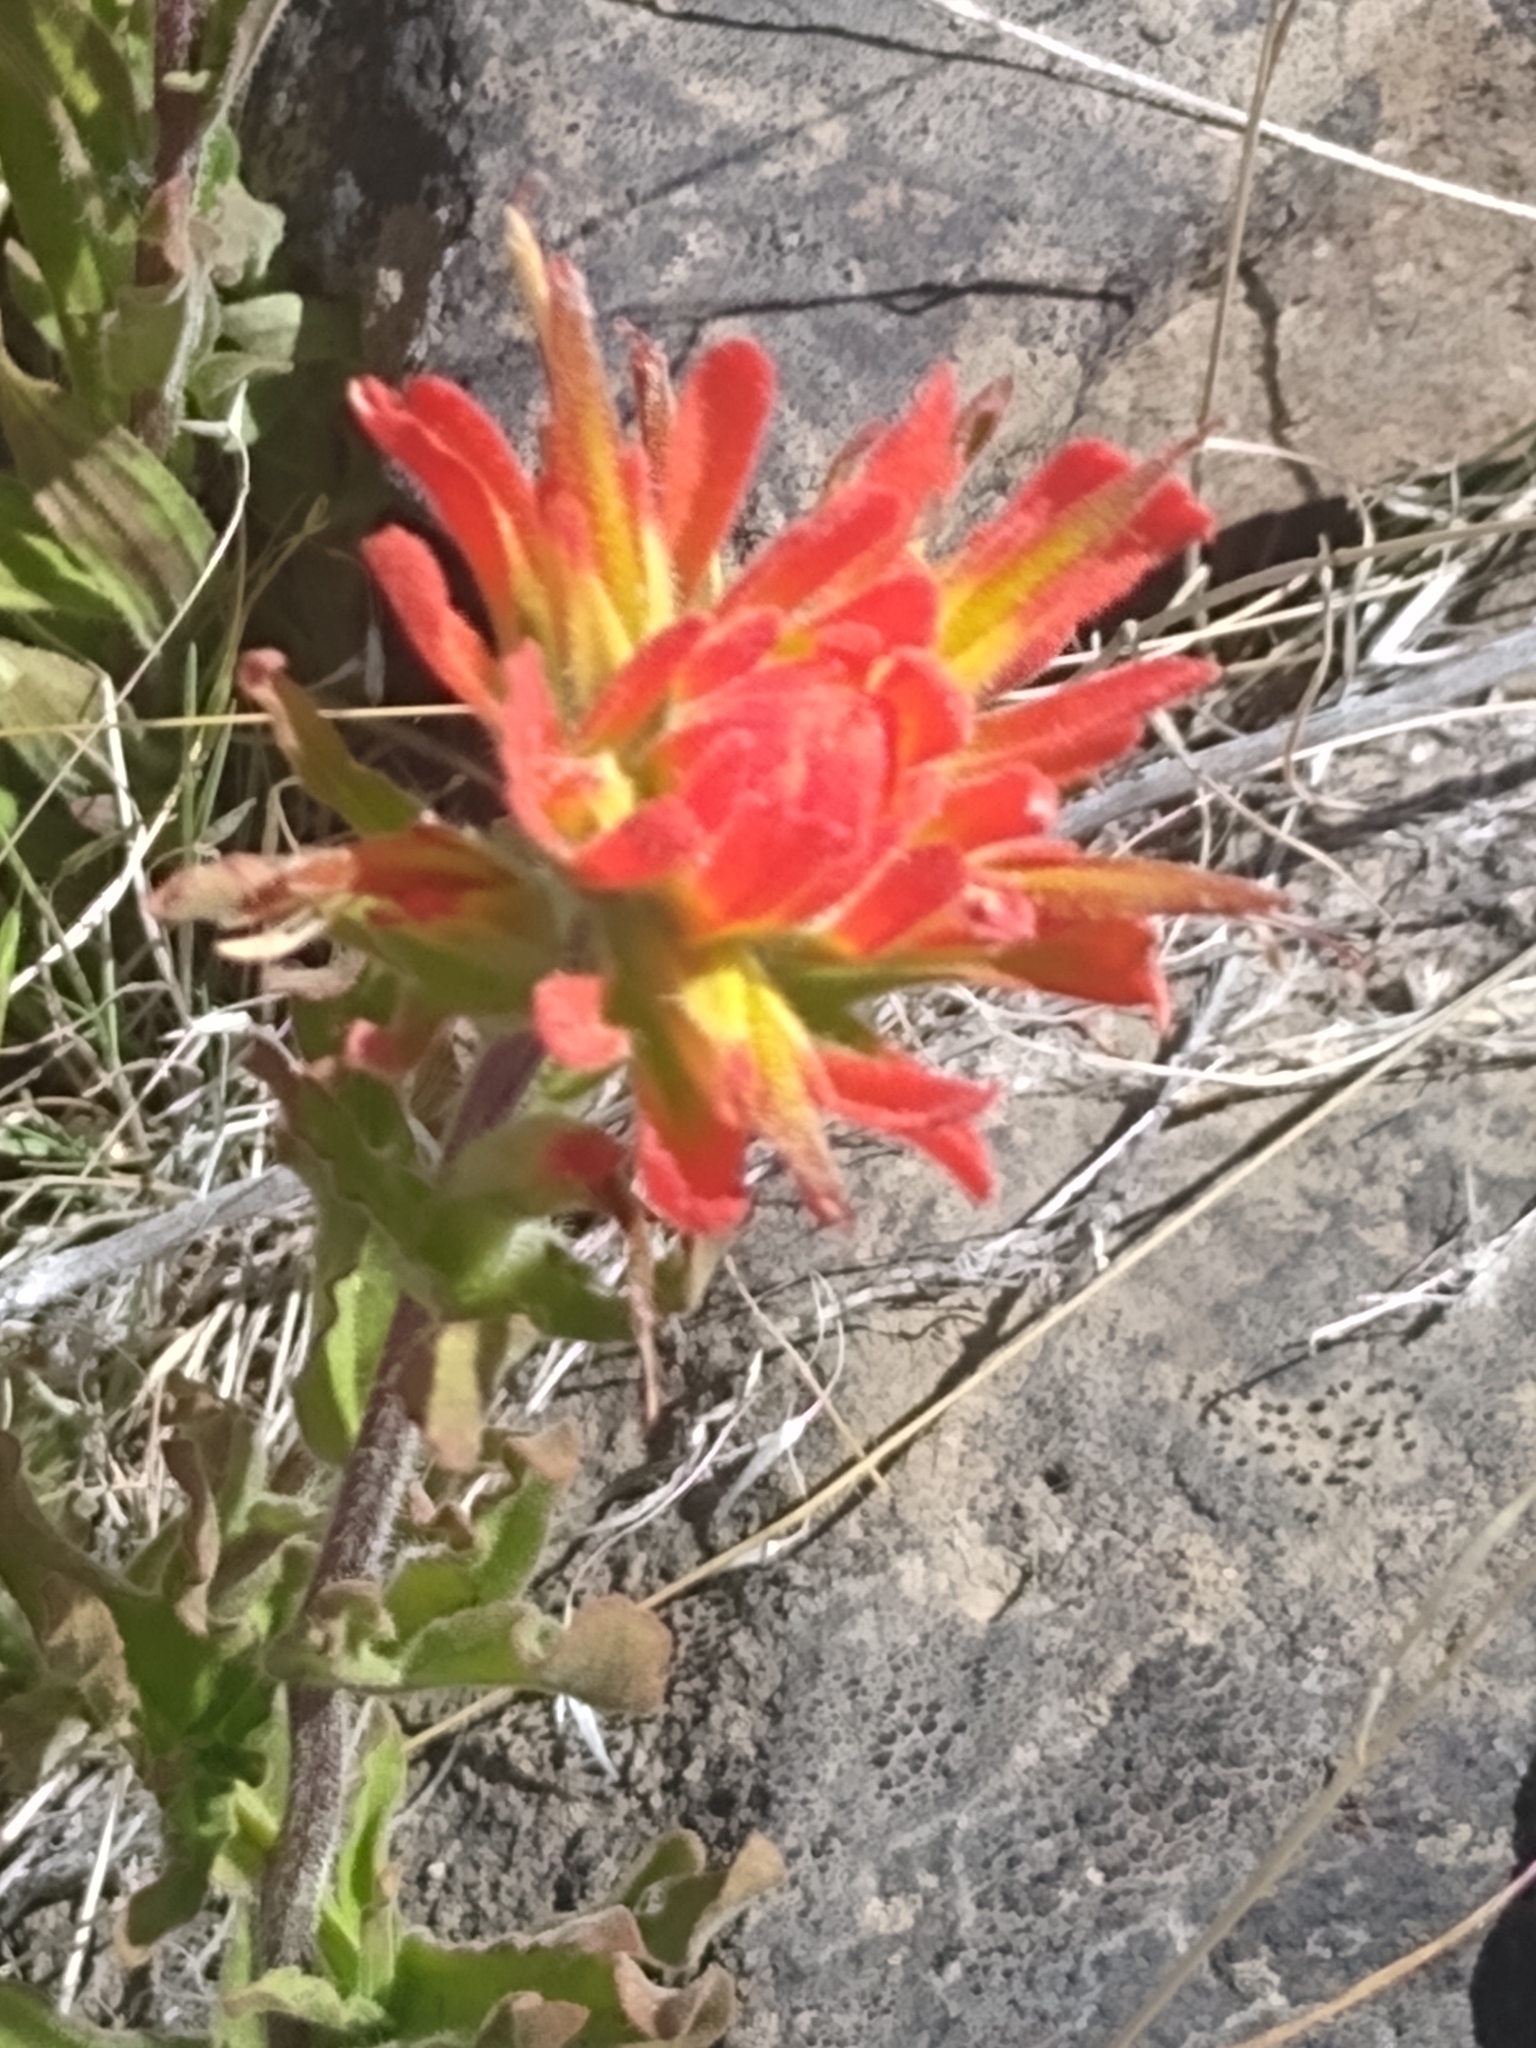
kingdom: Plantae
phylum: Tracheophyta
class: Magnoliopsida
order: Lamiales
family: Orobanchaceae
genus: Castilleja
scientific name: Castilleja applegatei
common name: Wavy-leaf paintbrush
